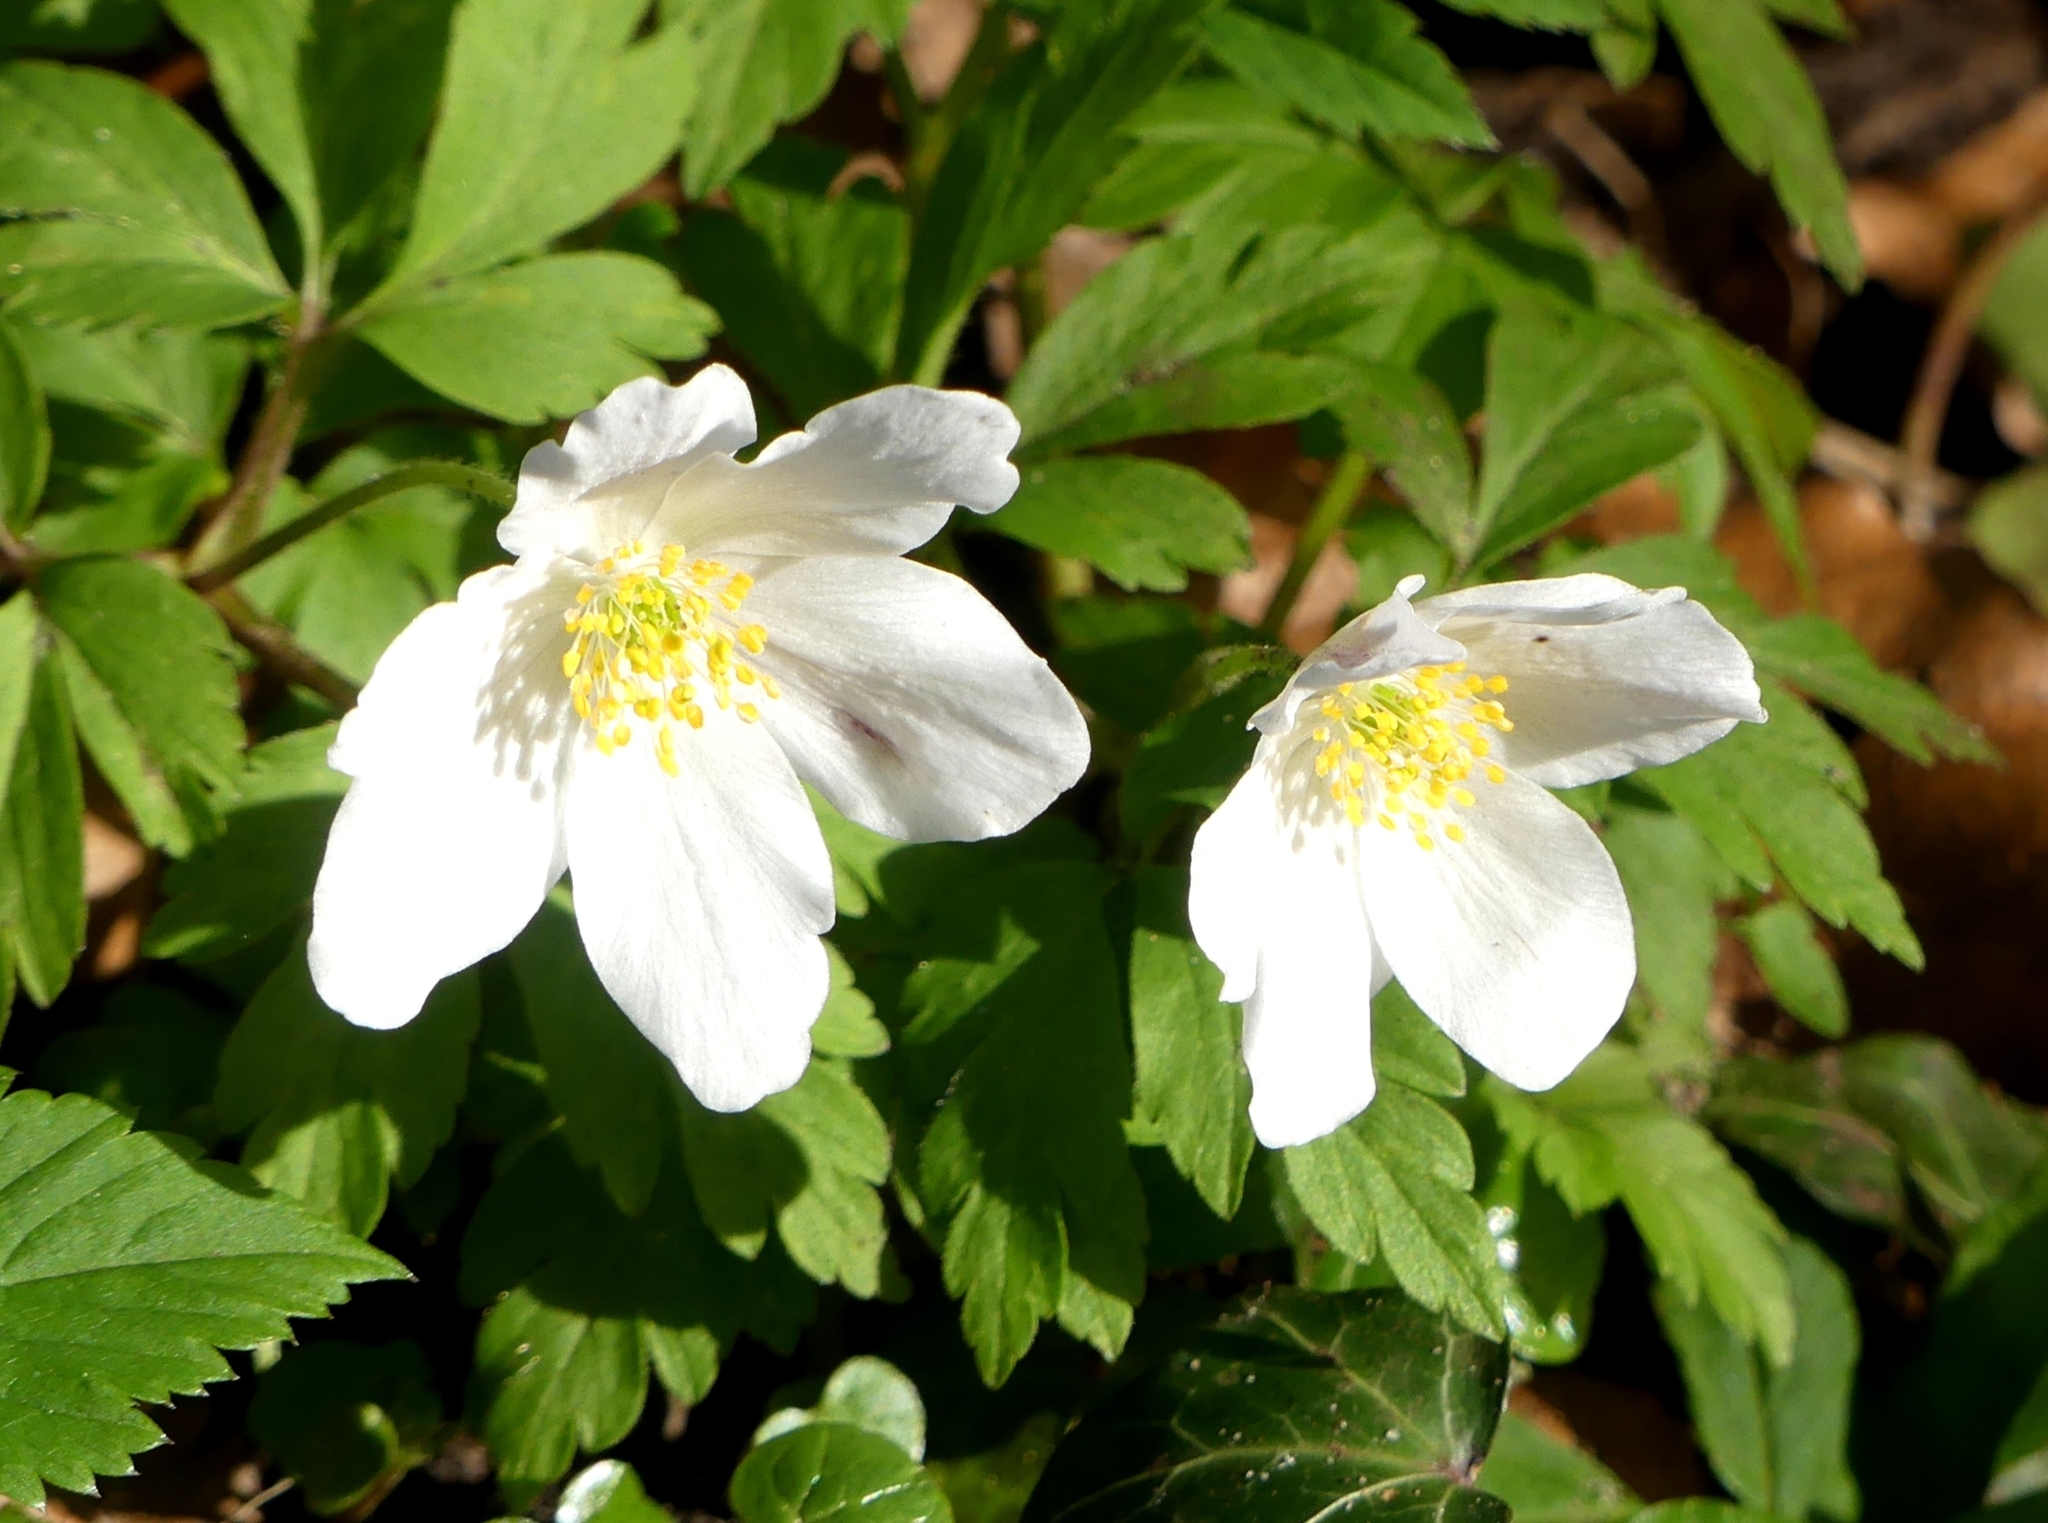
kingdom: Plantae
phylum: Tracheophyta
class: Magnoliopsida
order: Ranunculales
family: Ranunculaceae
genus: Anemone
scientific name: Anemone nemorosa
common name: Wood anemone
